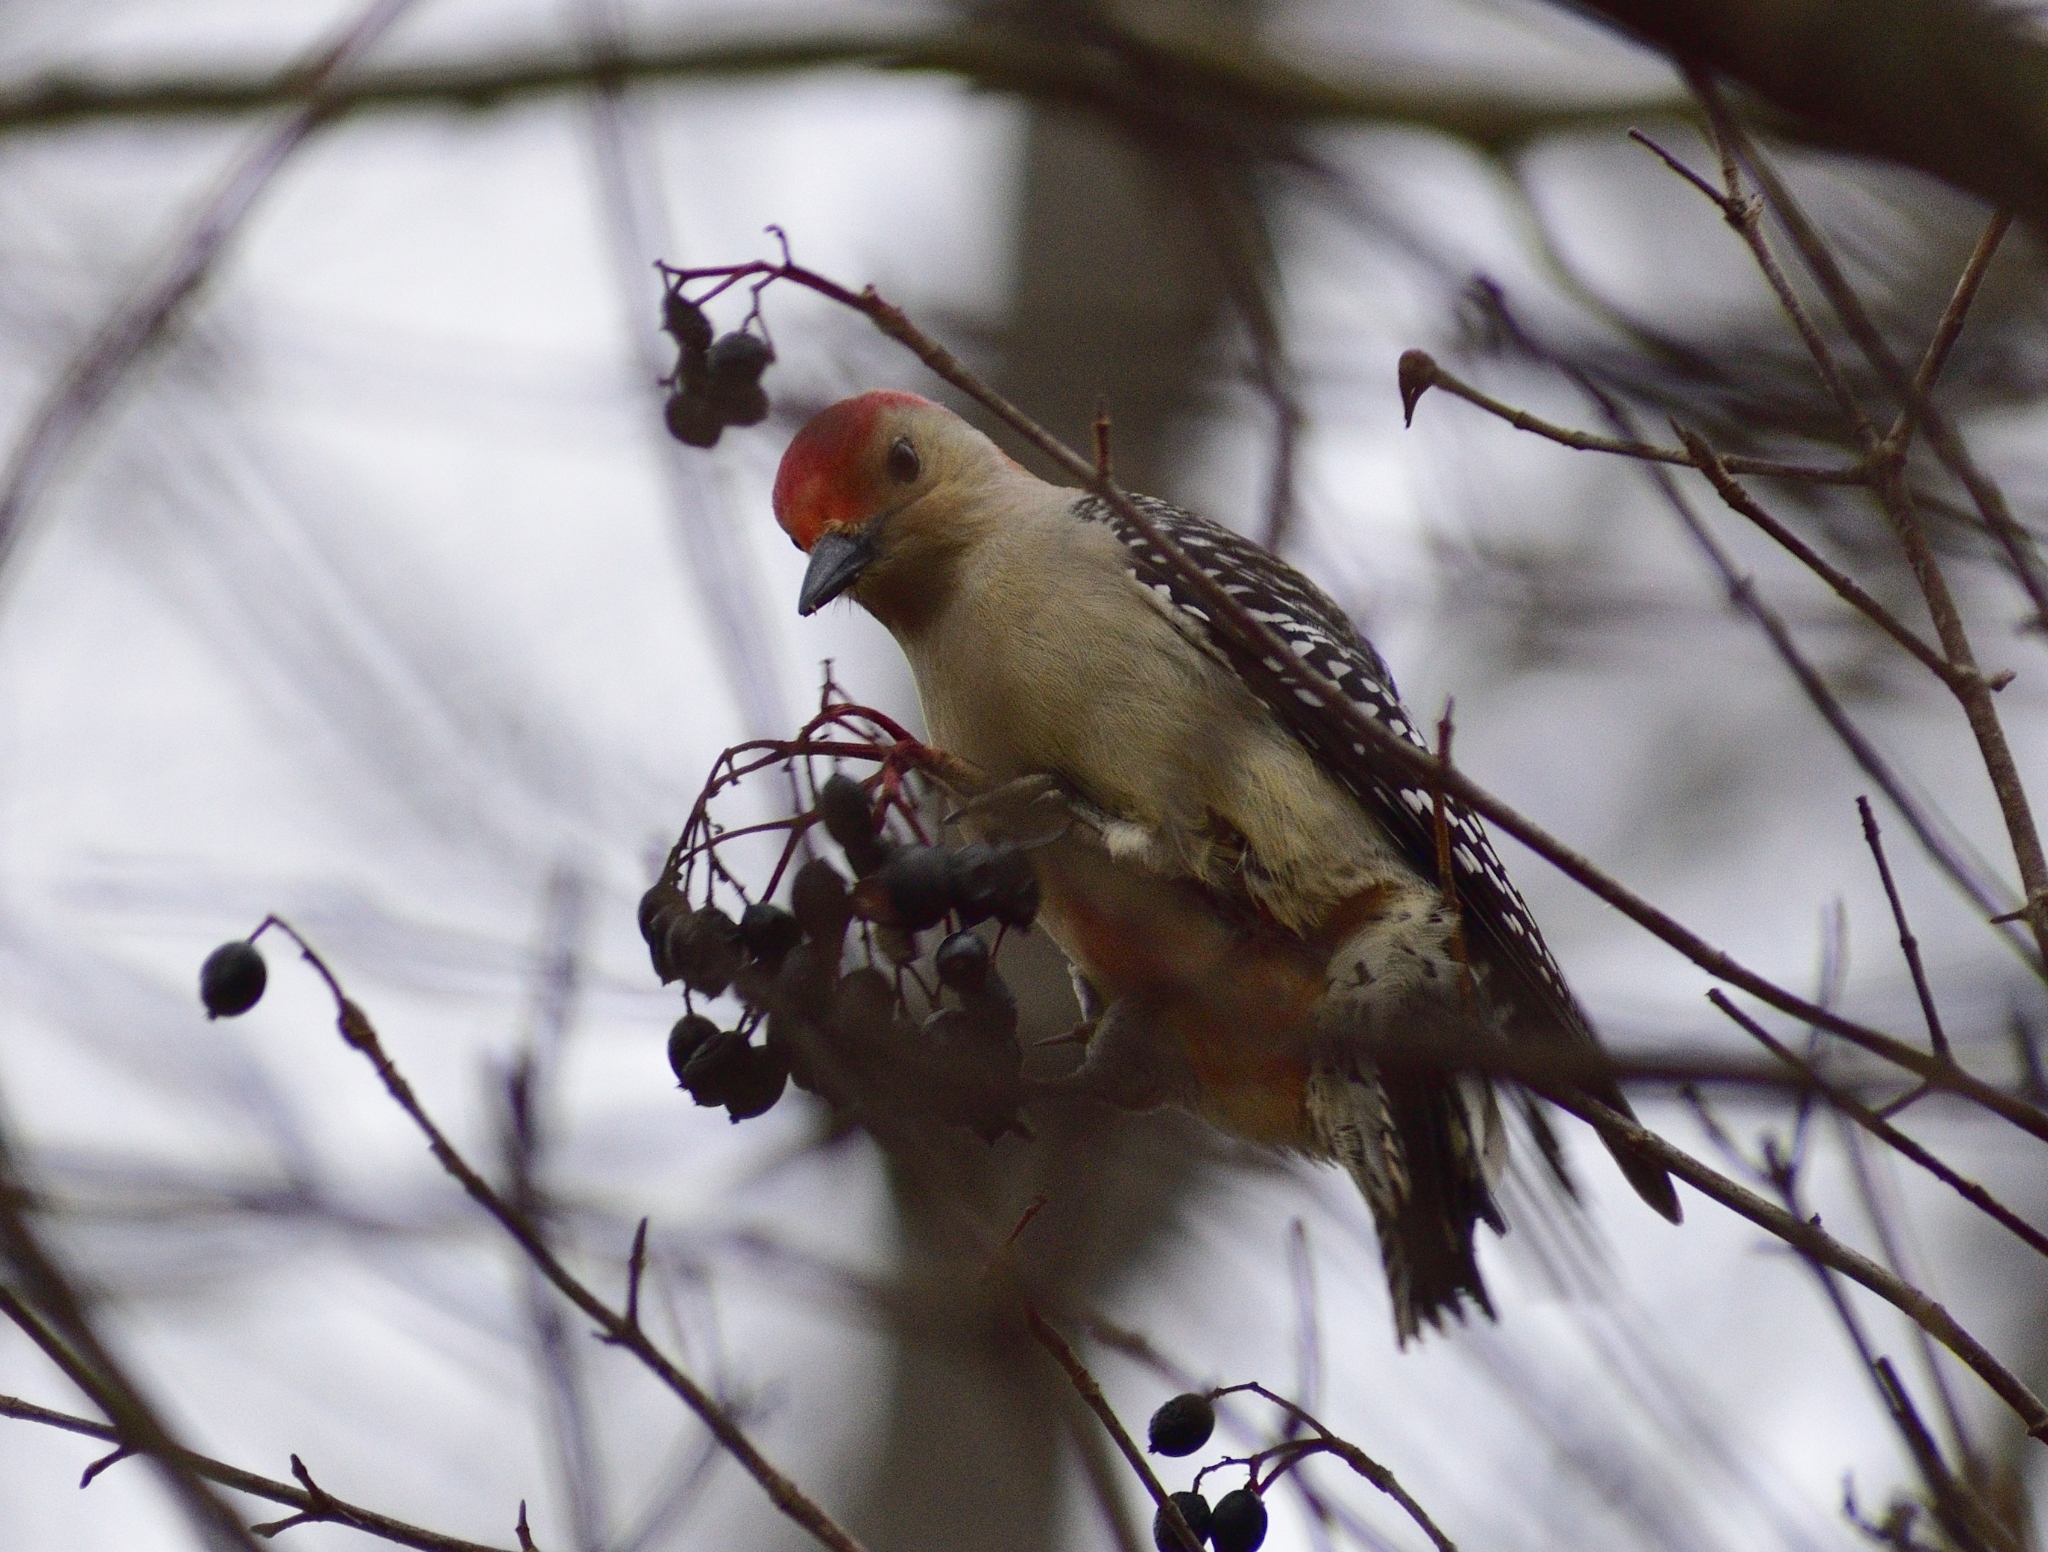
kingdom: Animalia
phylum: Chordata
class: Aves
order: Piciformes
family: Picidae
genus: Melanerpes
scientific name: Melanerpes carolinus
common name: Red-bellied woodpecker
